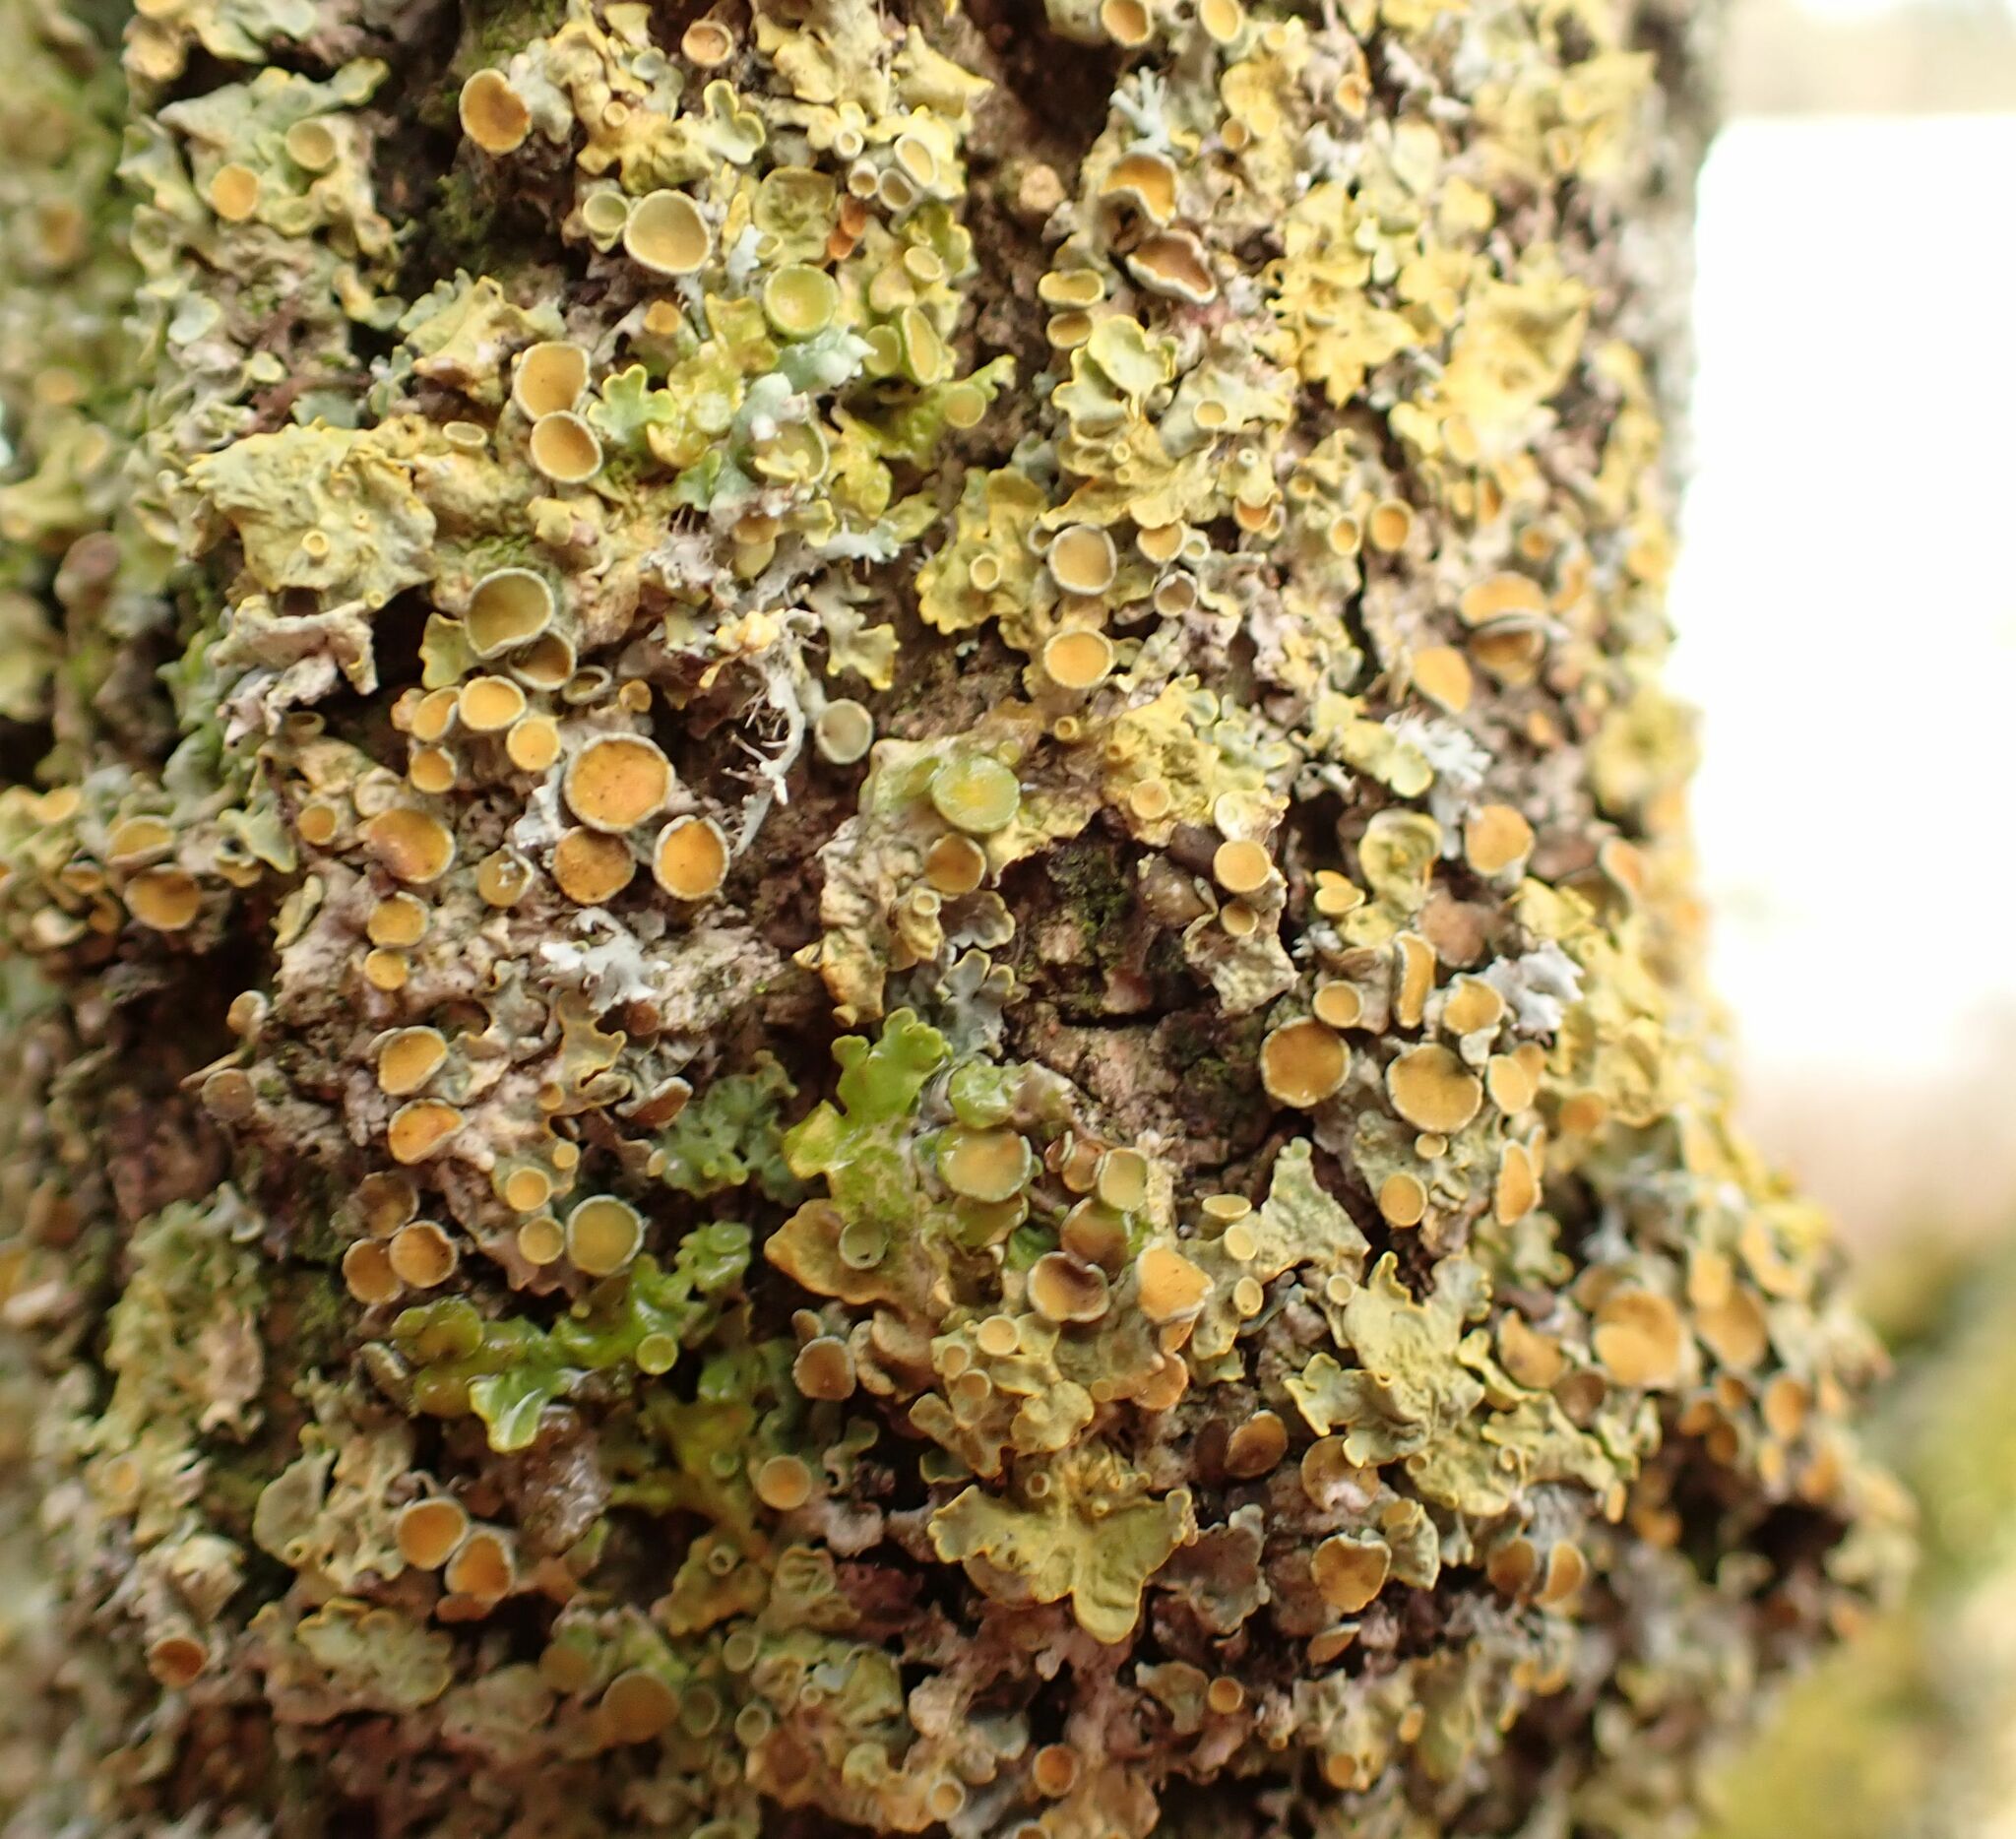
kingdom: Fungi
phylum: Ascomycota
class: Lecanoromycetes
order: Teloschistales
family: Teloschistaceae
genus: Xanthoria
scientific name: Xanthoria parietina
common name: Common orange lichen
